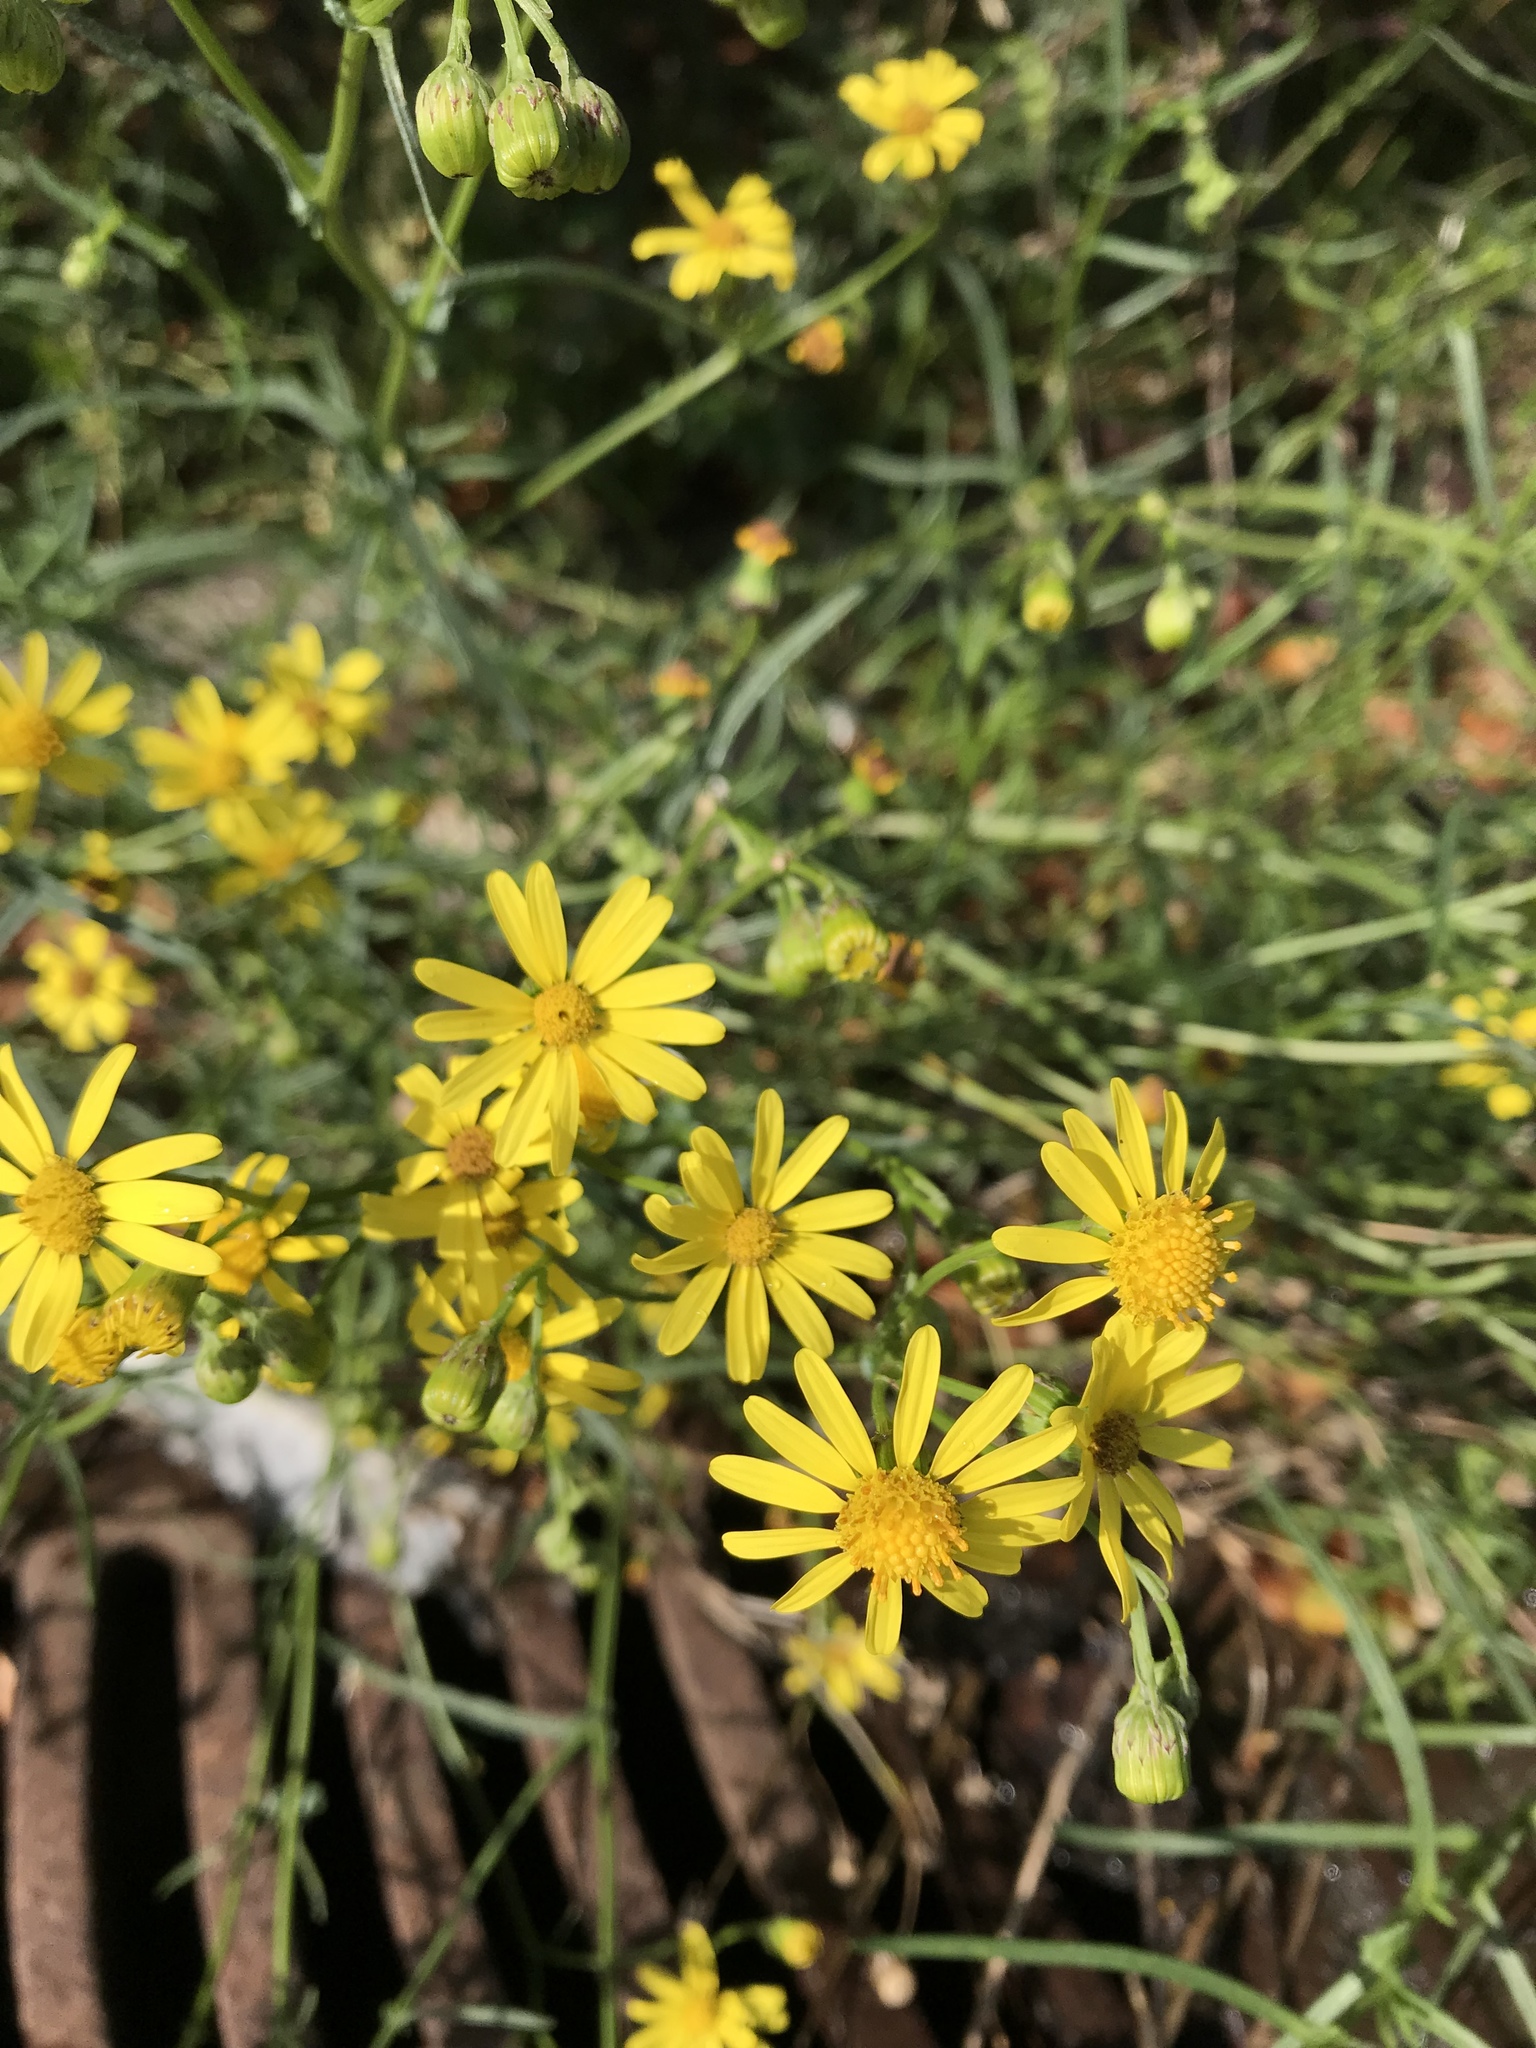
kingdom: Plantae
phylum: Tracheophyta
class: Magnoliopsida
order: Asterales
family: Asteraceae
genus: Senecio
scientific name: Senecio inaequidens
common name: Narrow-leaved ragwort
